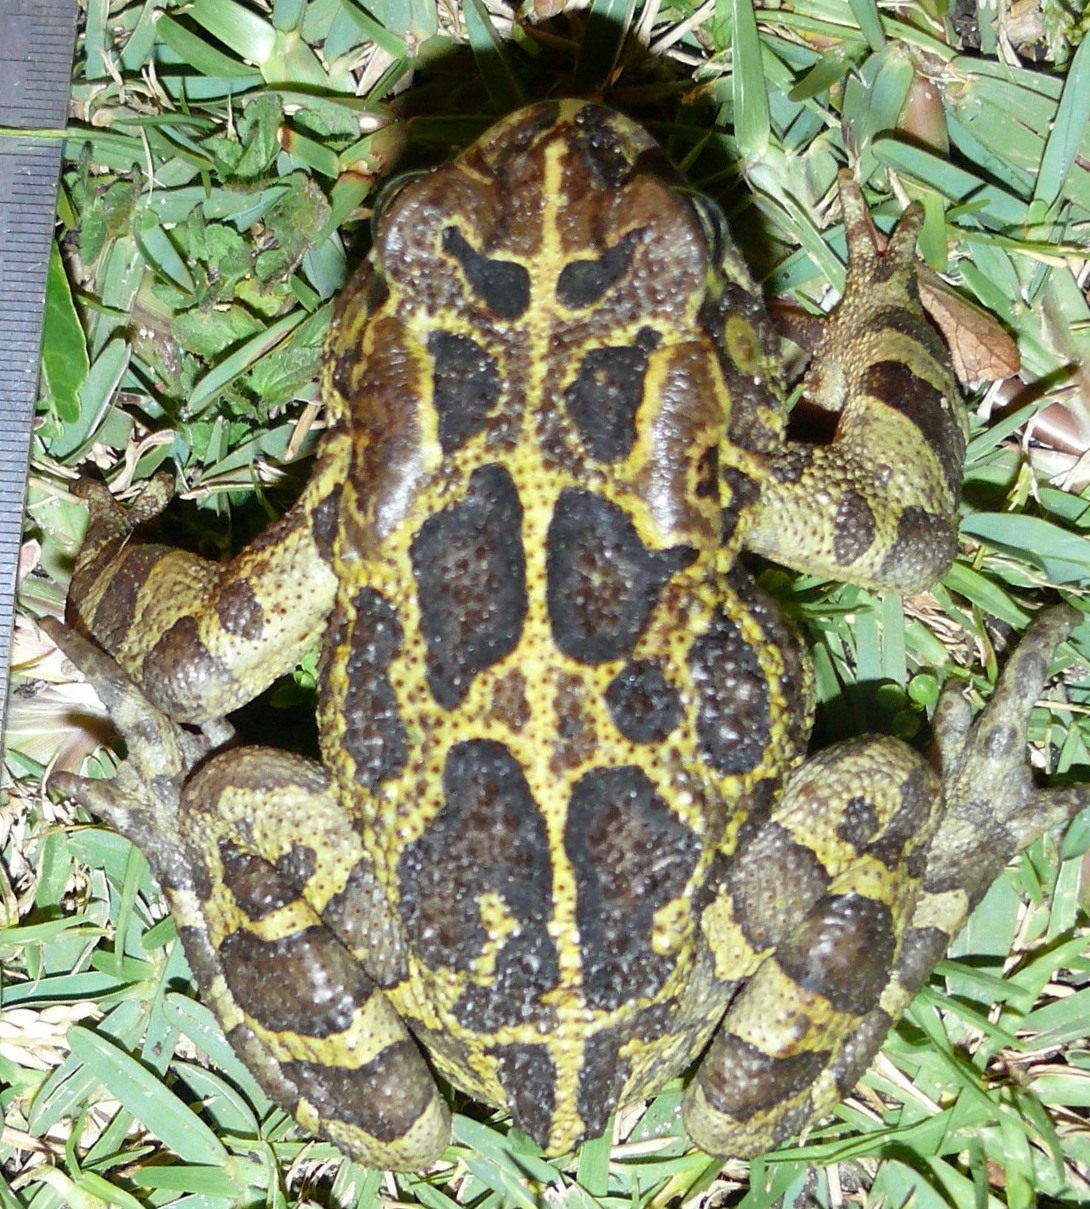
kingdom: Animalia
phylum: Chordata
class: Amphibia
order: Anura
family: Bufonidae
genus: Sclerophrys
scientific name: Sclerophrys pantherina
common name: Panther toad
